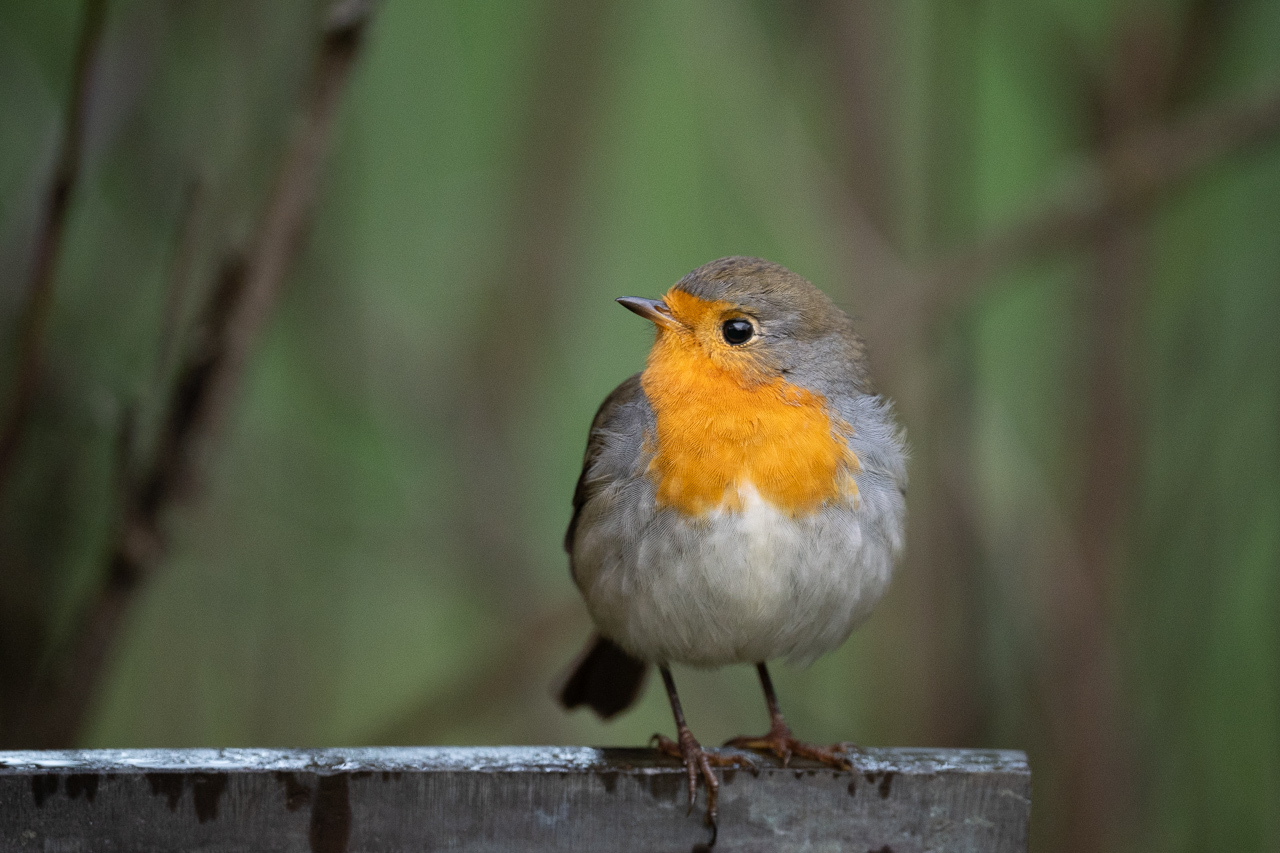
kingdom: Animalia
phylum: Chordata
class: Aves
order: Passeriformes
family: Muscicapidae
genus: Erithacus
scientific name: Erithacus rubecula
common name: European robin
